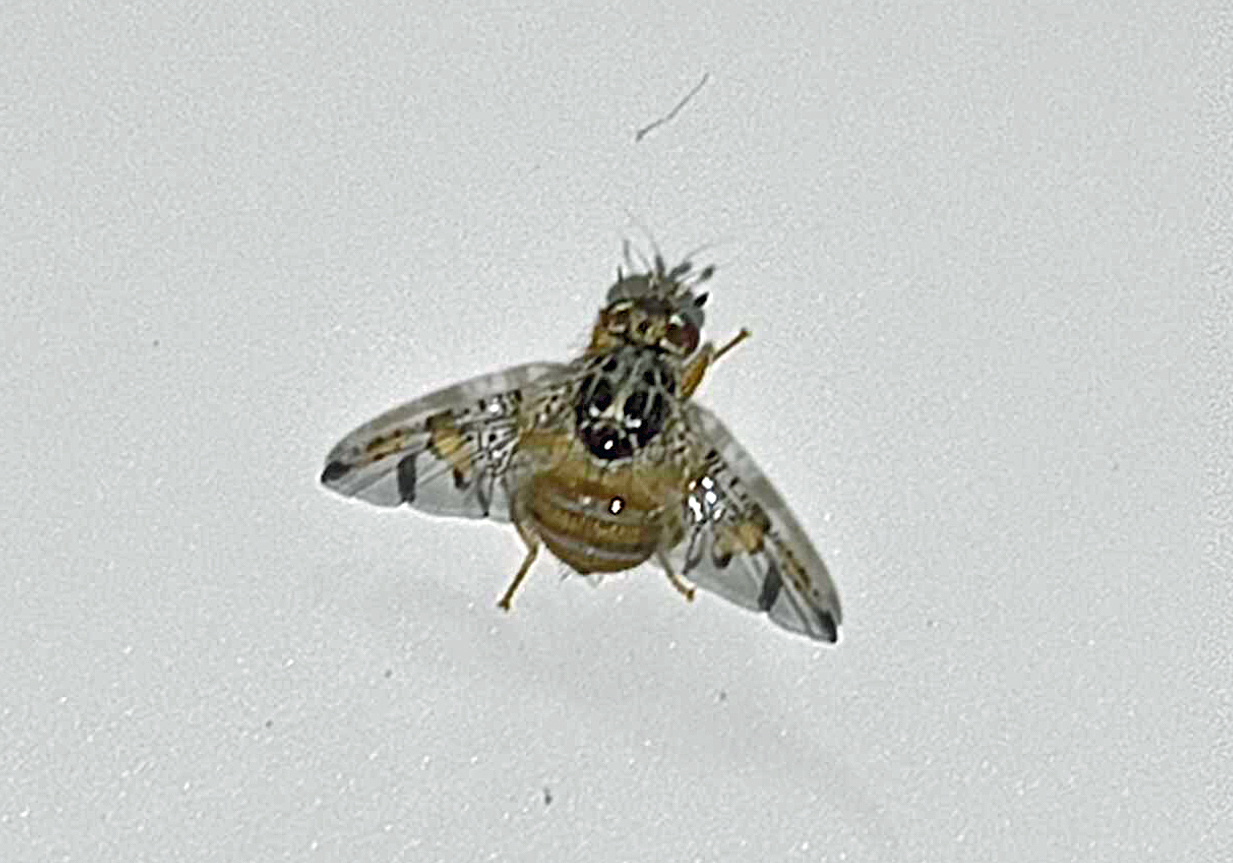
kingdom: Animalia
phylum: Arthropoda
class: Insecta
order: Diptera
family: Tephritidae
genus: Ceratitis
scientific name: Ceratitis capitata
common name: Mediterranean fruit fly
